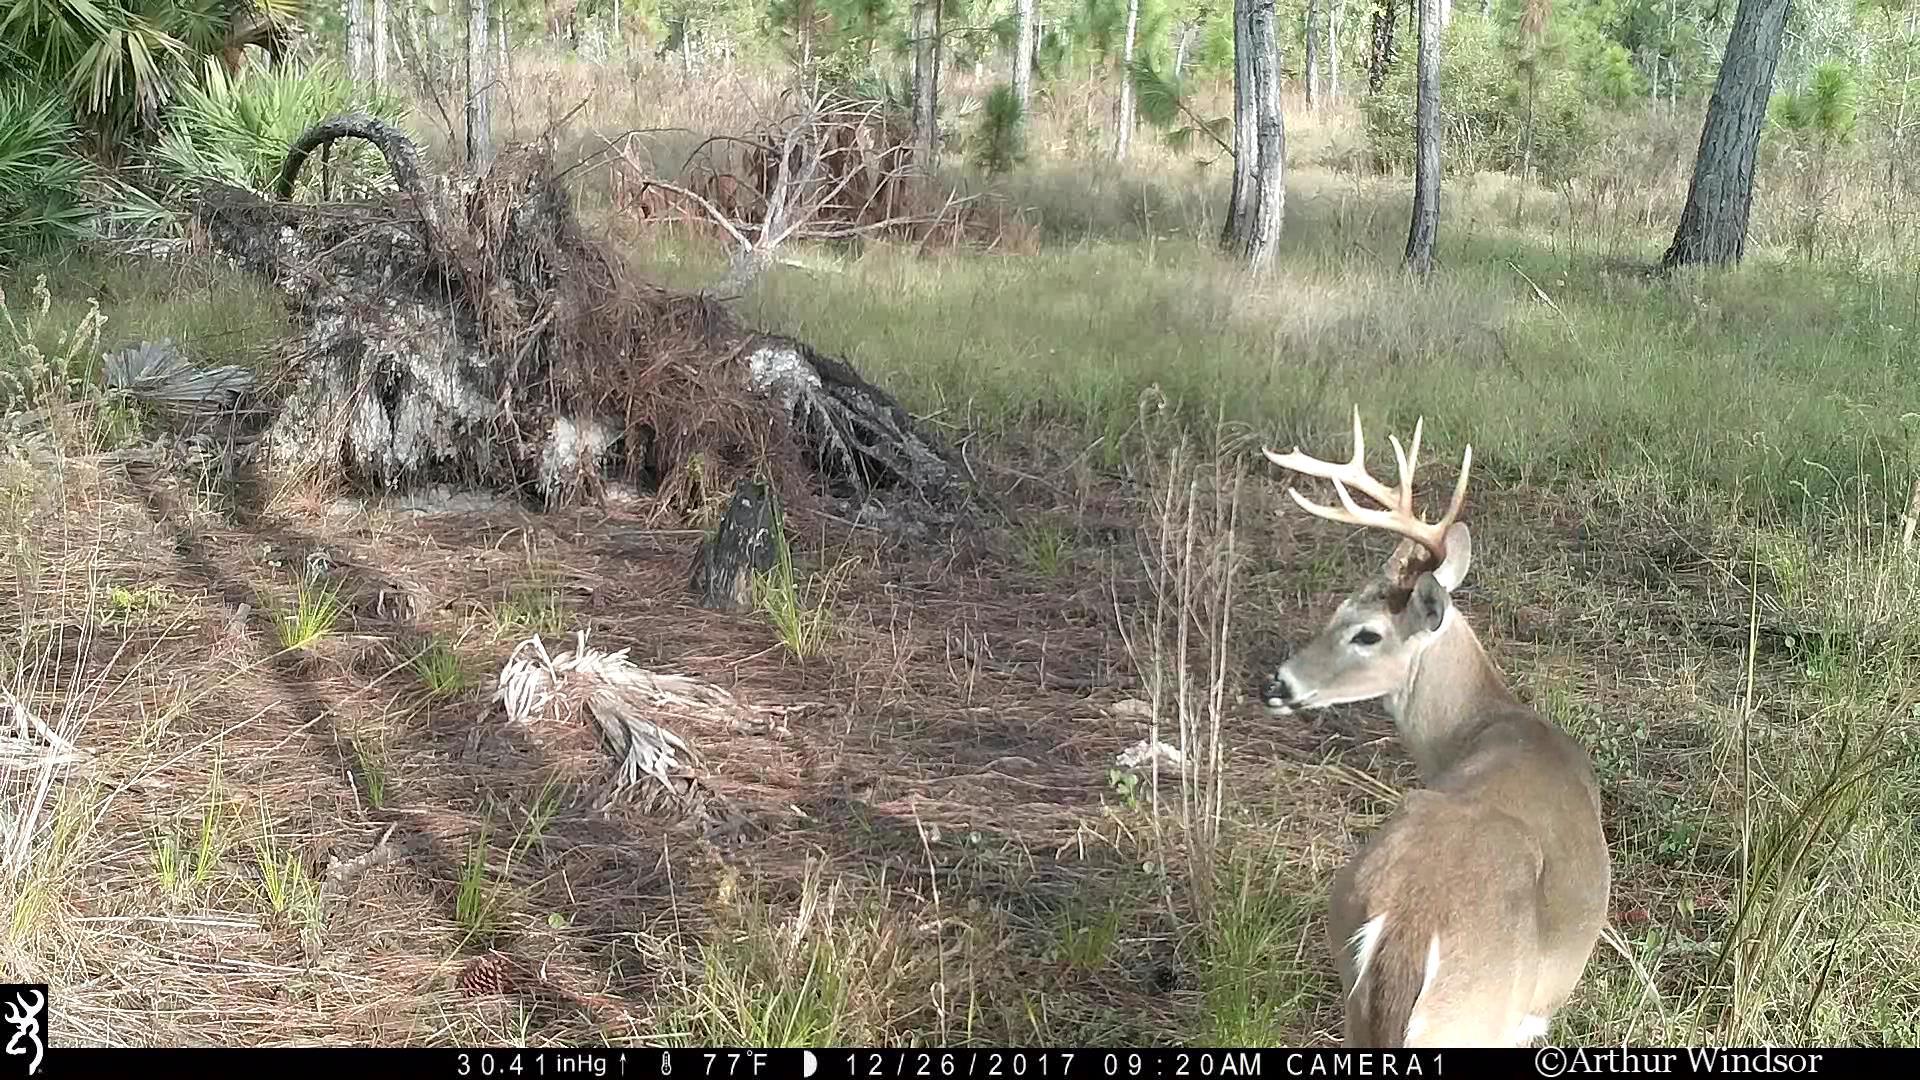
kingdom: Animalia
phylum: Chordata
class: Mammalia
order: Artiodactyla
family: Cervidae
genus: Odocoileus
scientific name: Odocoileus virginianus
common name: White-tailed deer
